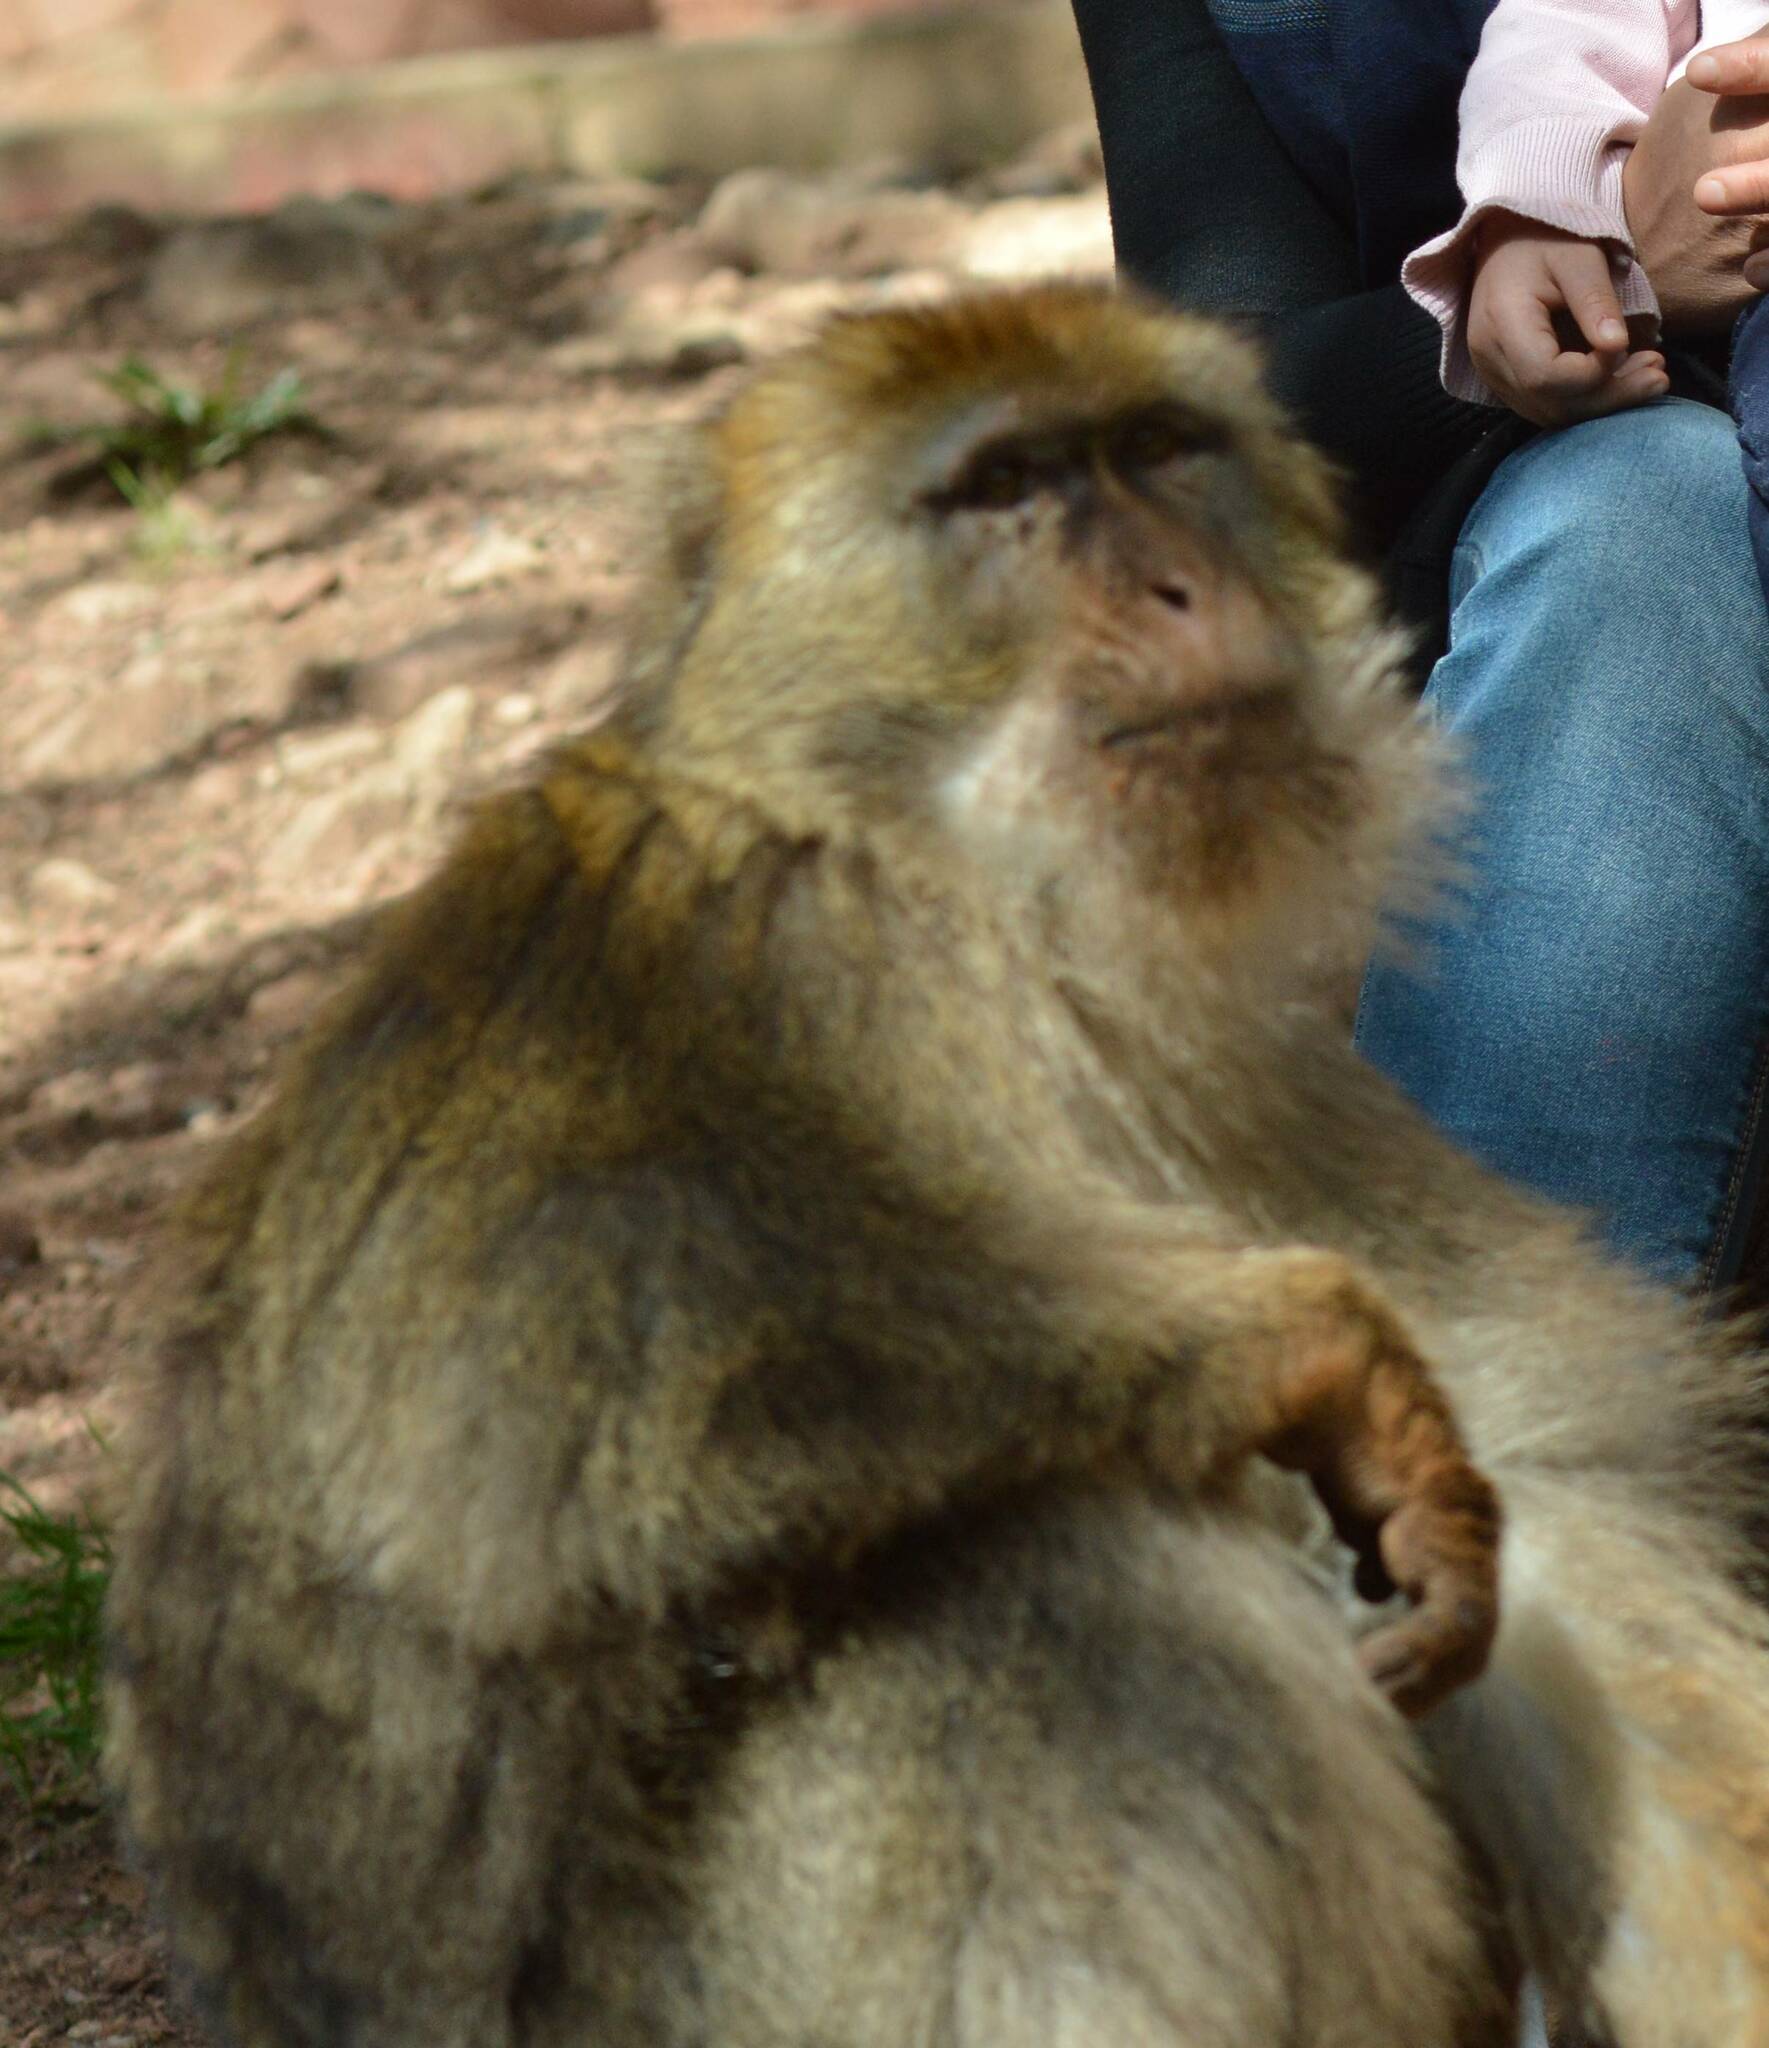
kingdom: Animalia
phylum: Chordata
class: Mammalia
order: Primates
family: Cercopithecidae
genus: Macaca
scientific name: Macaca sylvanus
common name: Barbary macaque
